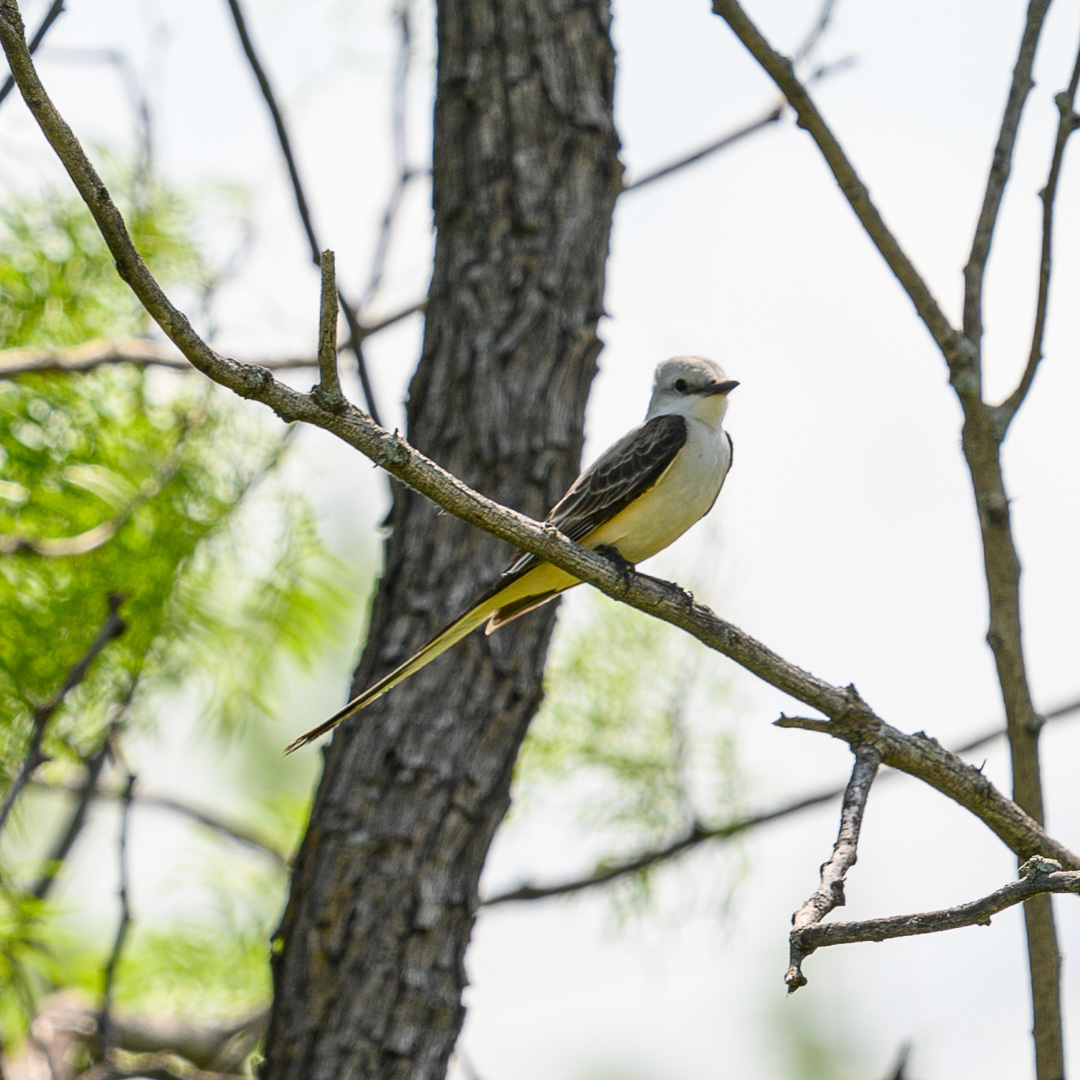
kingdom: Animalia
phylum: Chordata
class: Aves
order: Passeriformes
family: Tyrannidae
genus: Tyrannus
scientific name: Tyrannus forficatus
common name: Scissor-tailed flycatcher
